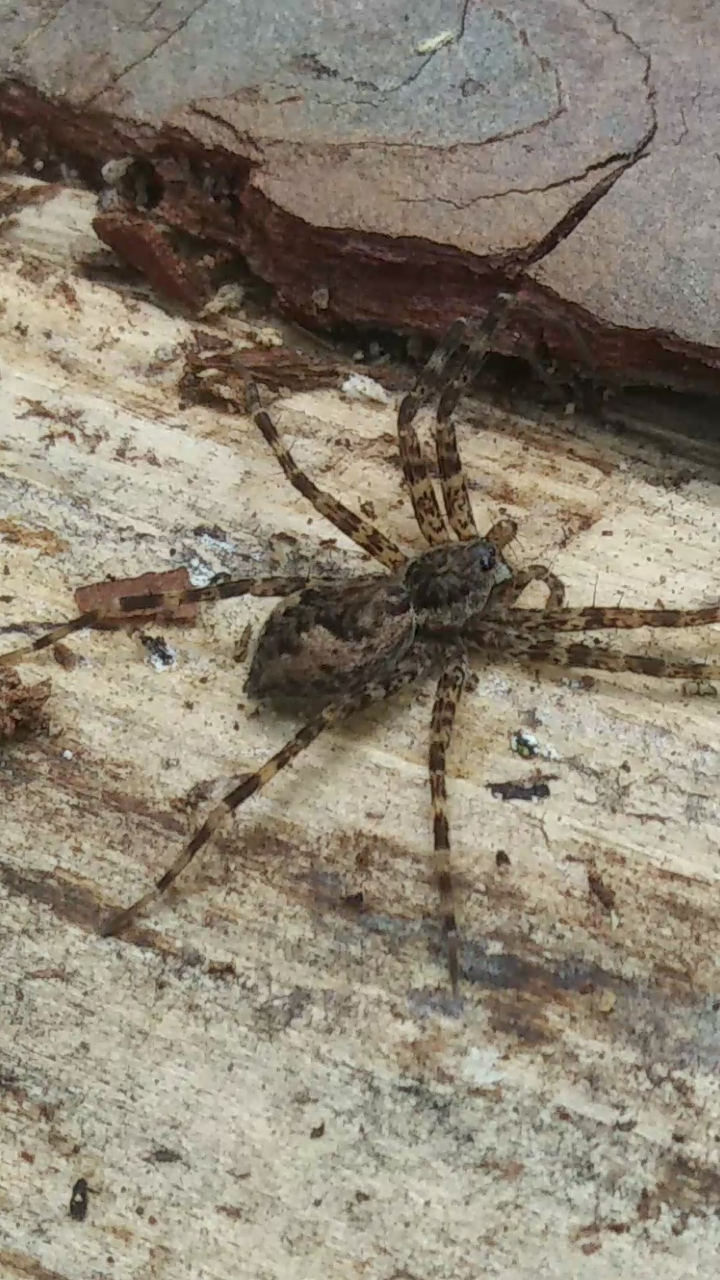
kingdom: Animalia
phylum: Arthropoda
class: Arachnida
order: Araneae
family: Pisauridae
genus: Dolomedes
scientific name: Dolomedes tenebrosus
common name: Dark fishing spider
